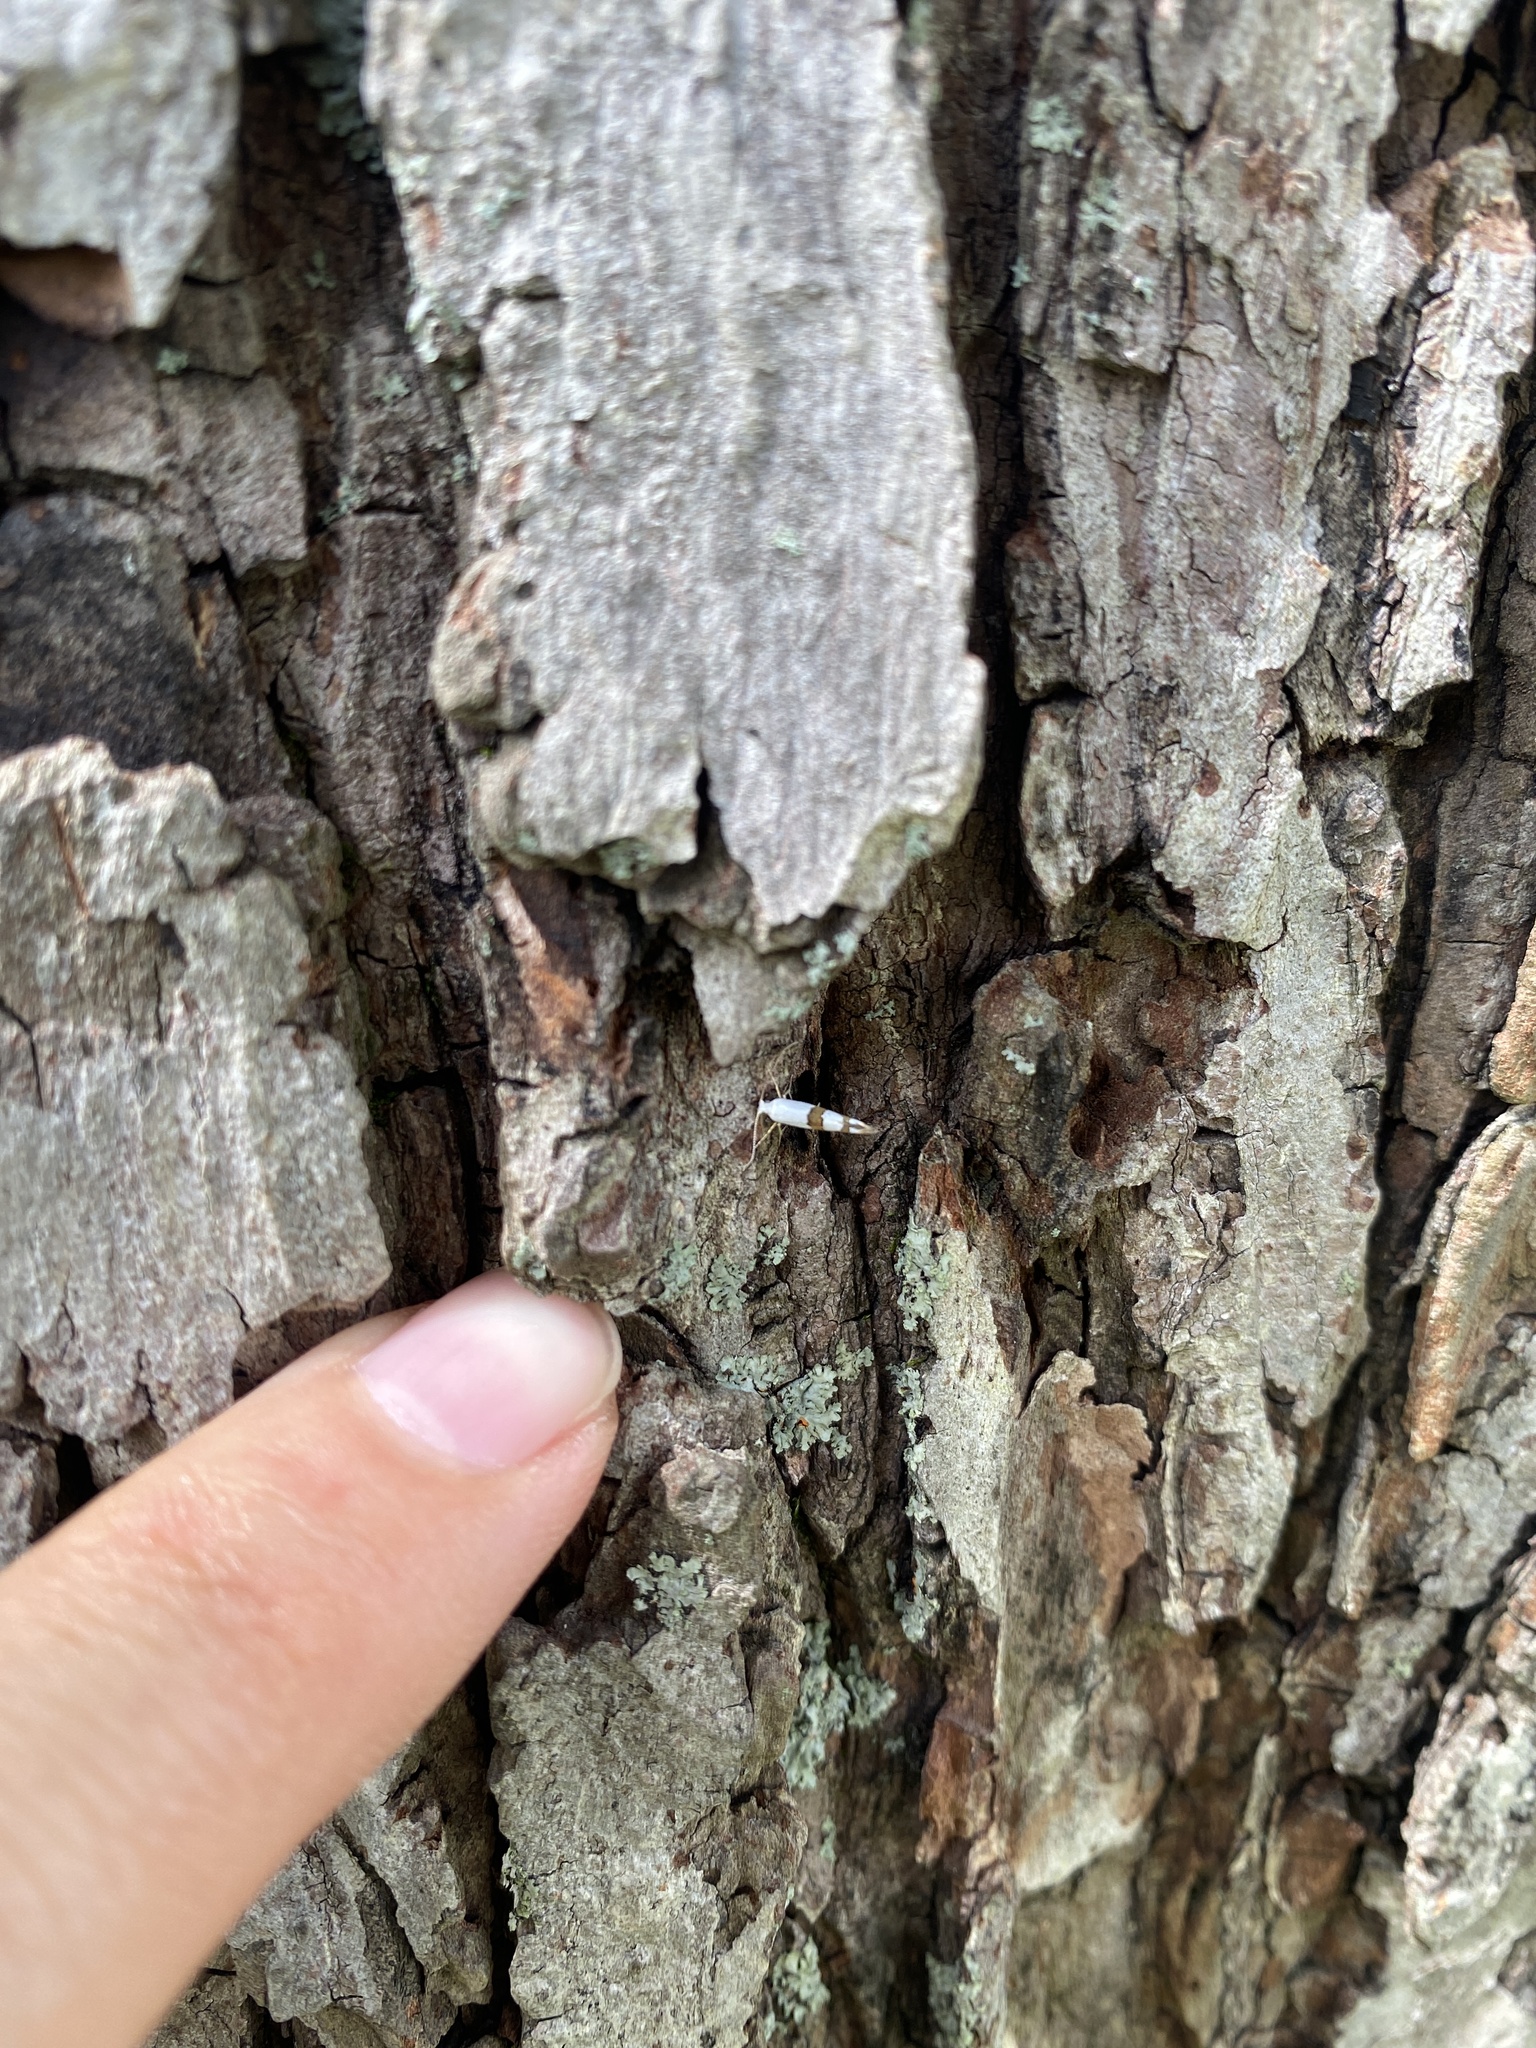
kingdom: Animalia
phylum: Arthropoda
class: Insecta
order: Lepidoptera
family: Argyresthiidae
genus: Argyresthia
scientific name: Argyresthia oreasella
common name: Cherry shoot borer moth
